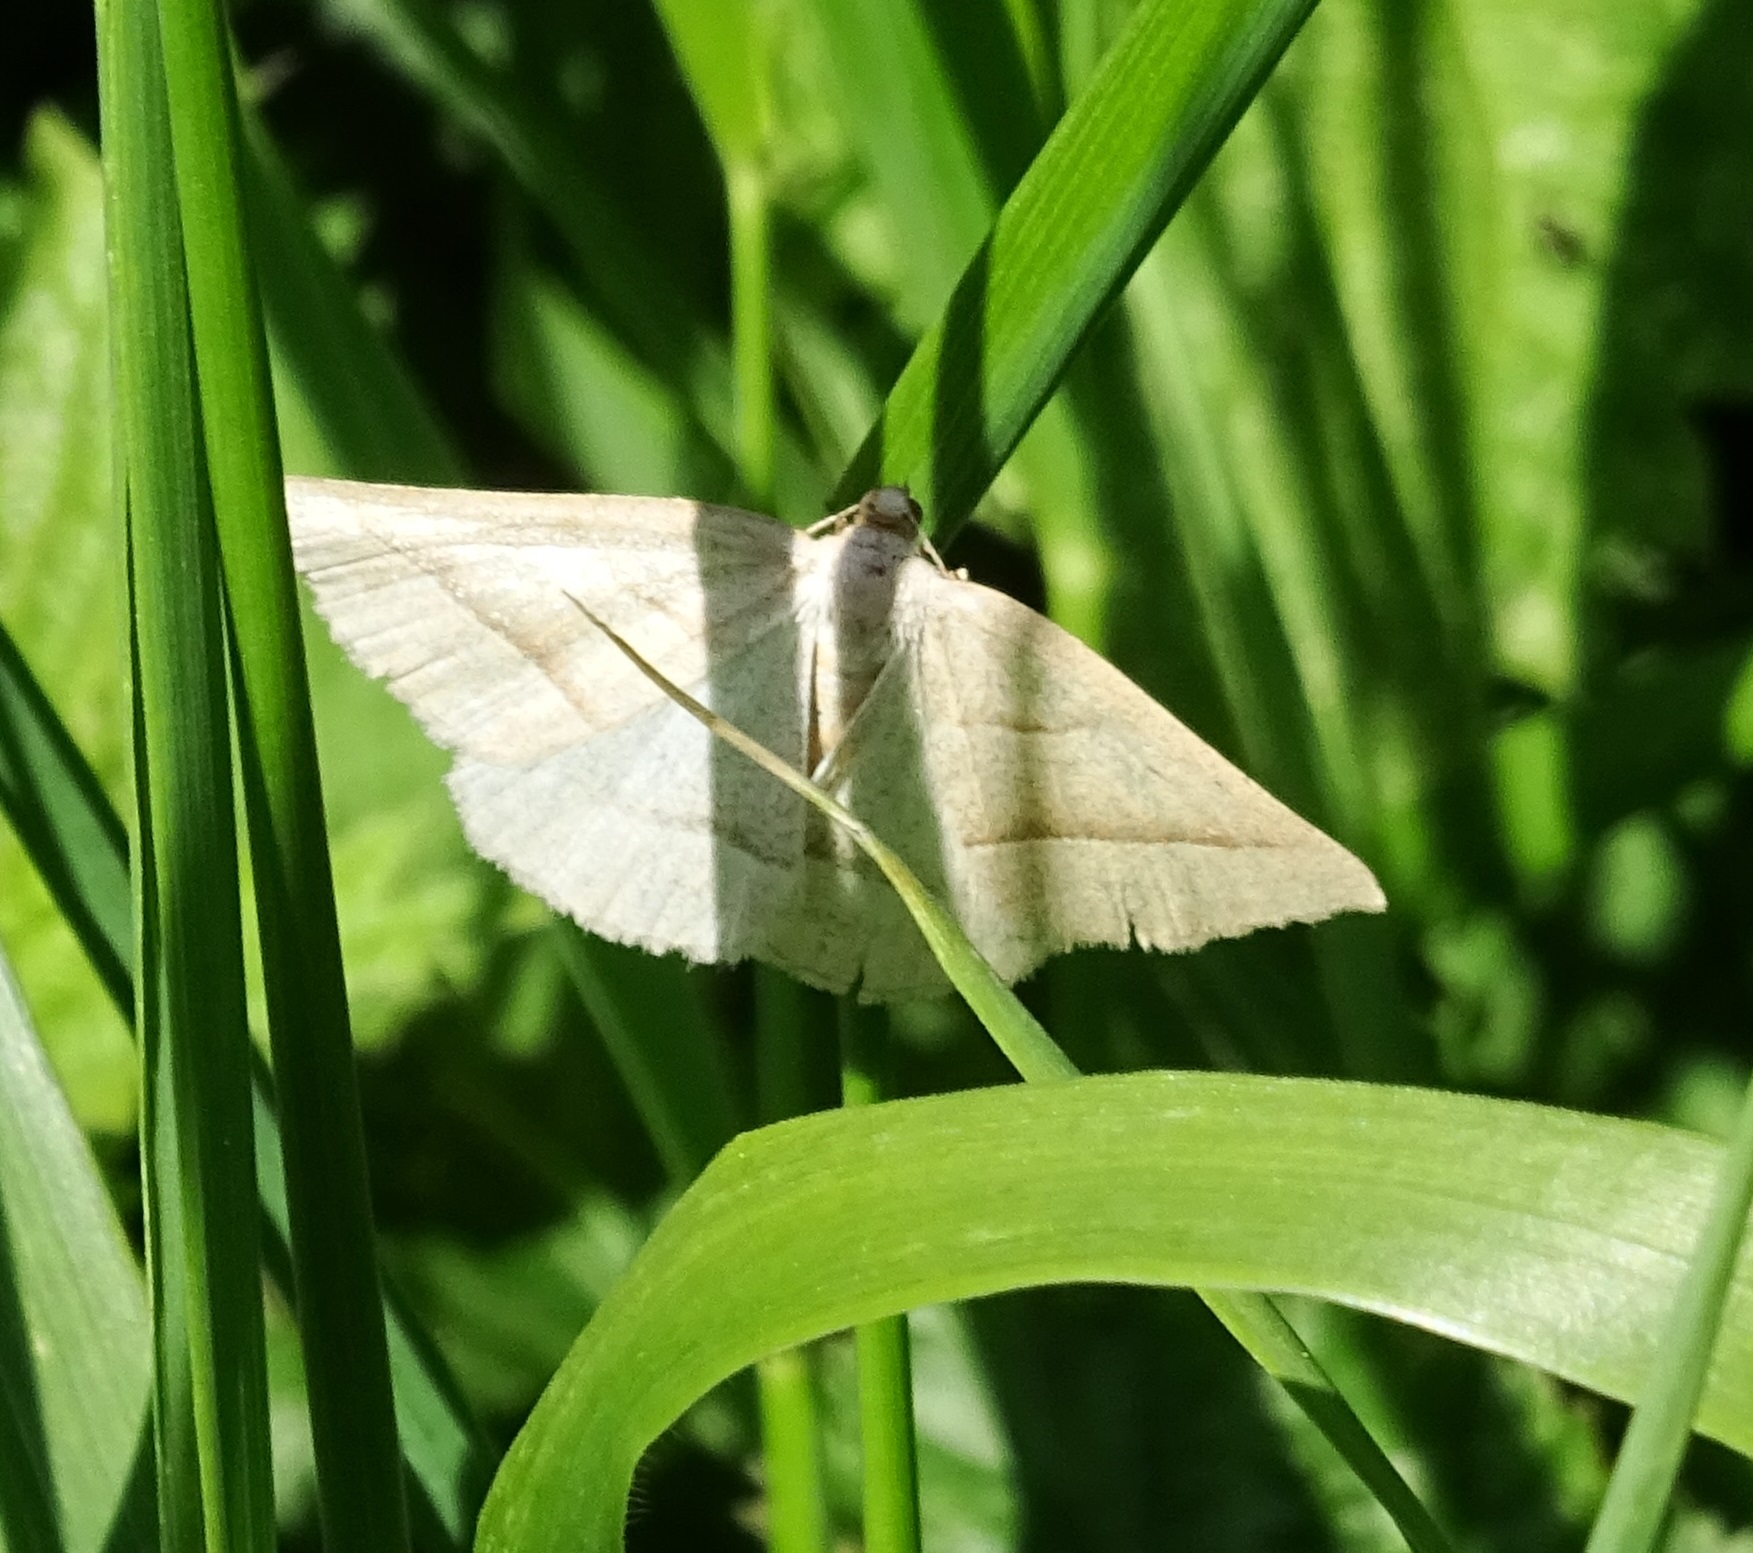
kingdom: Animalia
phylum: Arthropoda
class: Insecta
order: Lepidoptera
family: Pterophoridae
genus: Pterophorus
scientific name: Pterophorus Petrophora chlorosata
